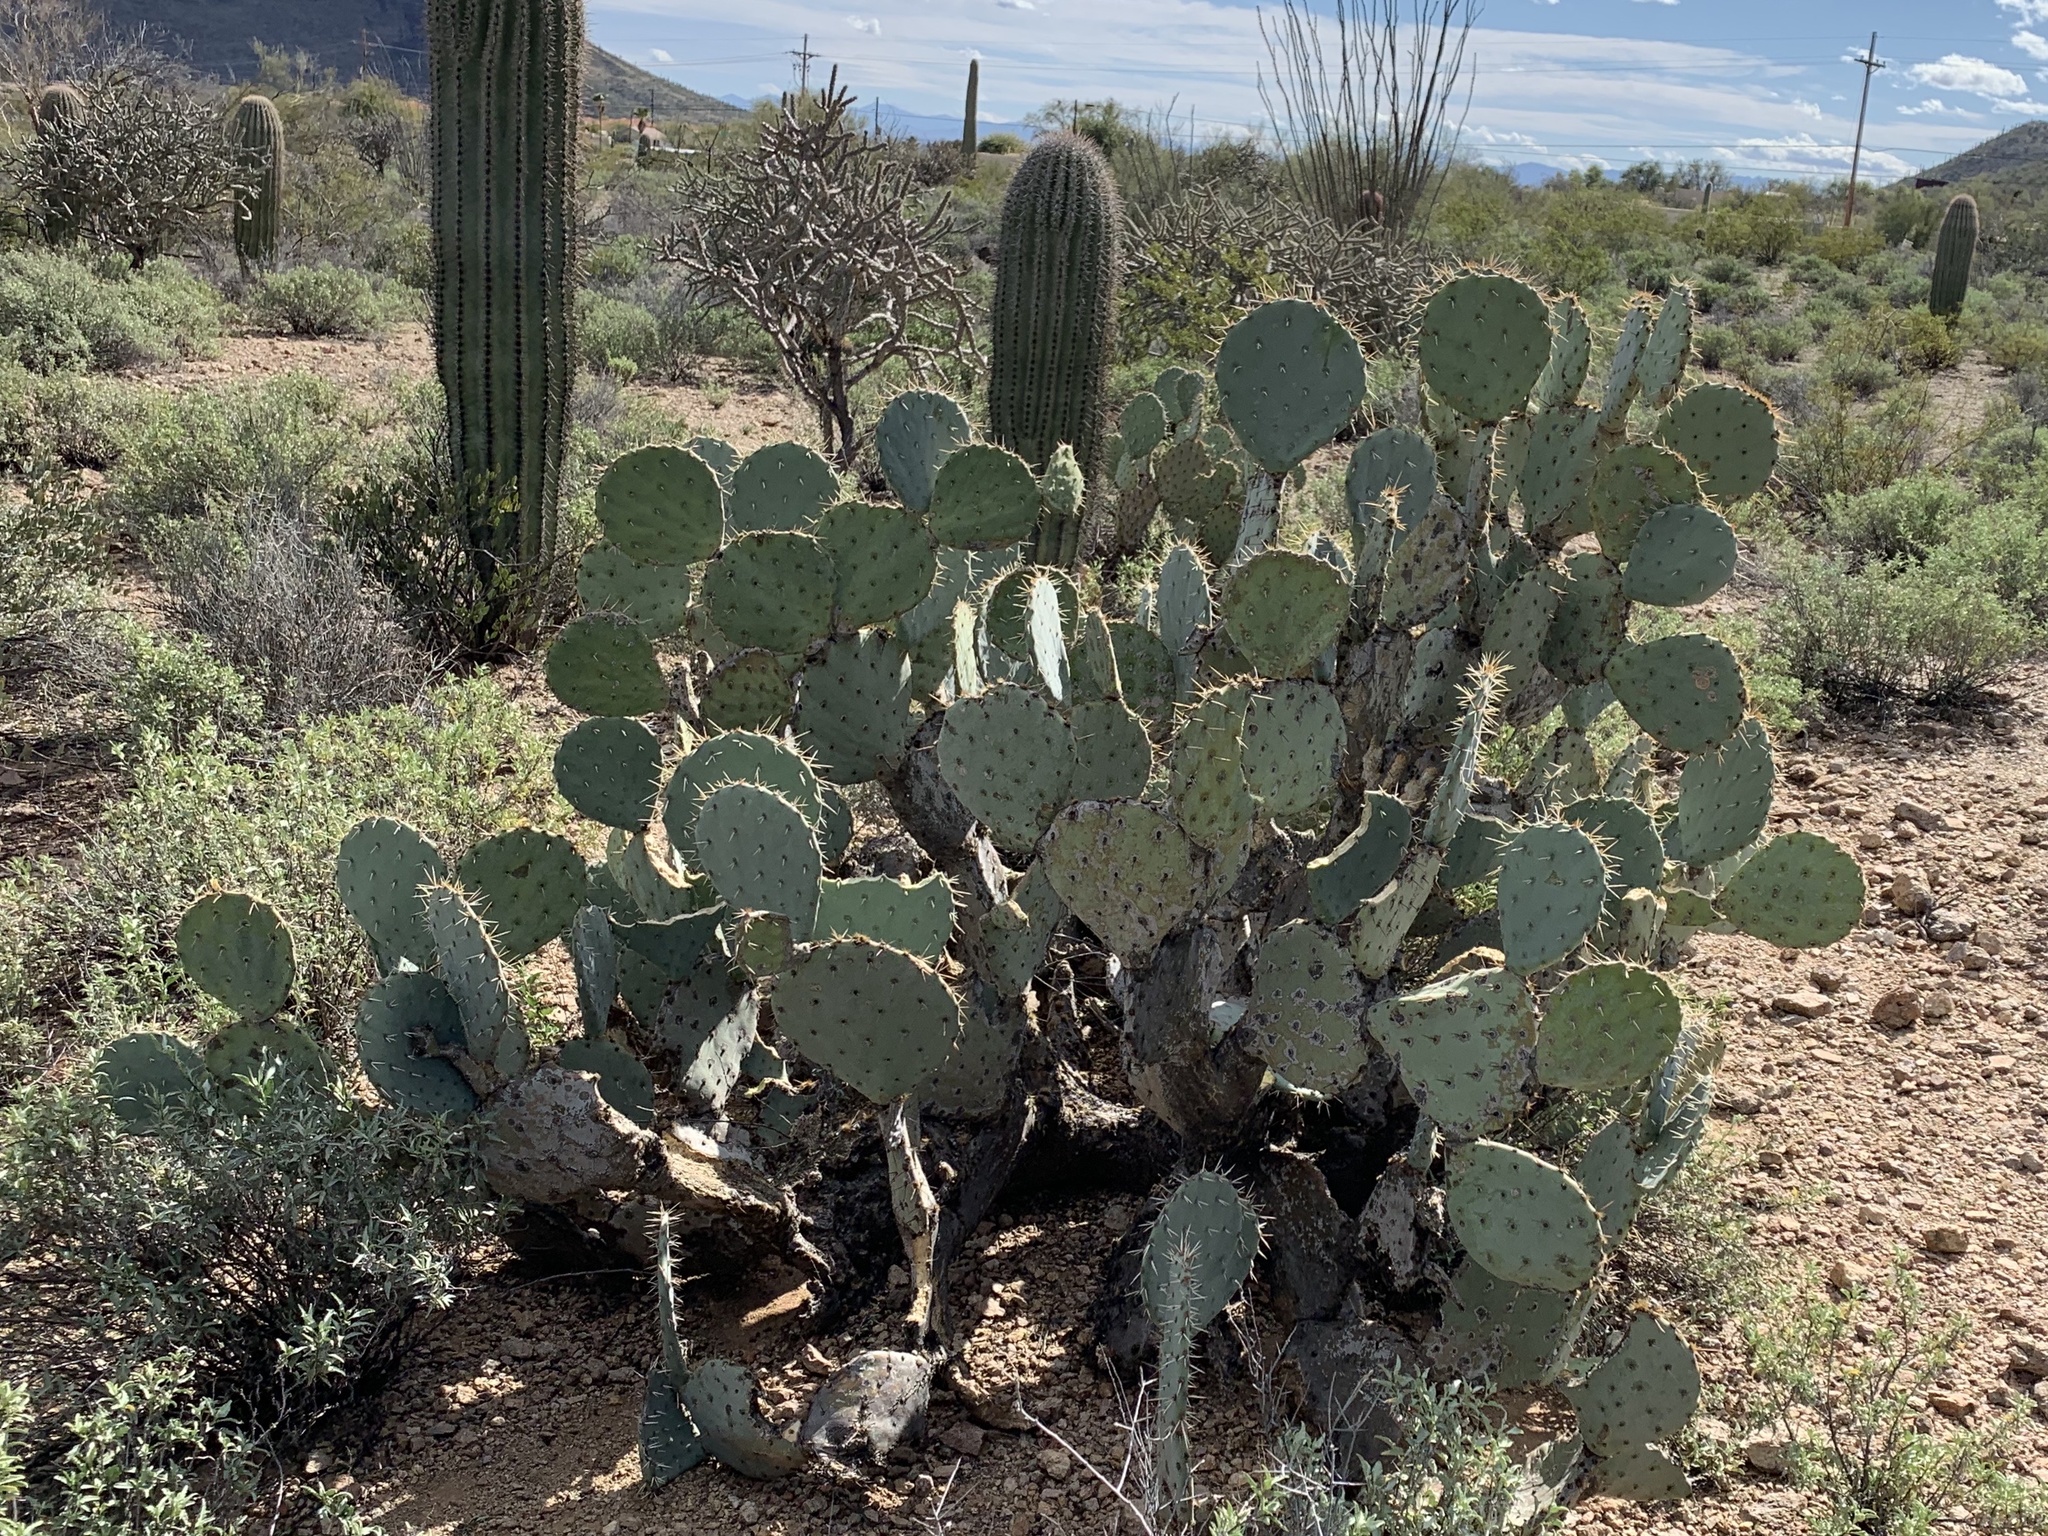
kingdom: Plantae
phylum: Tracheophyta
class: Magnoliopsida
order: Caryophyllales
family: Cactaceae
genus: Opuntia
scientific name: Opuntia engelmannii
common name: Cactus-apple
